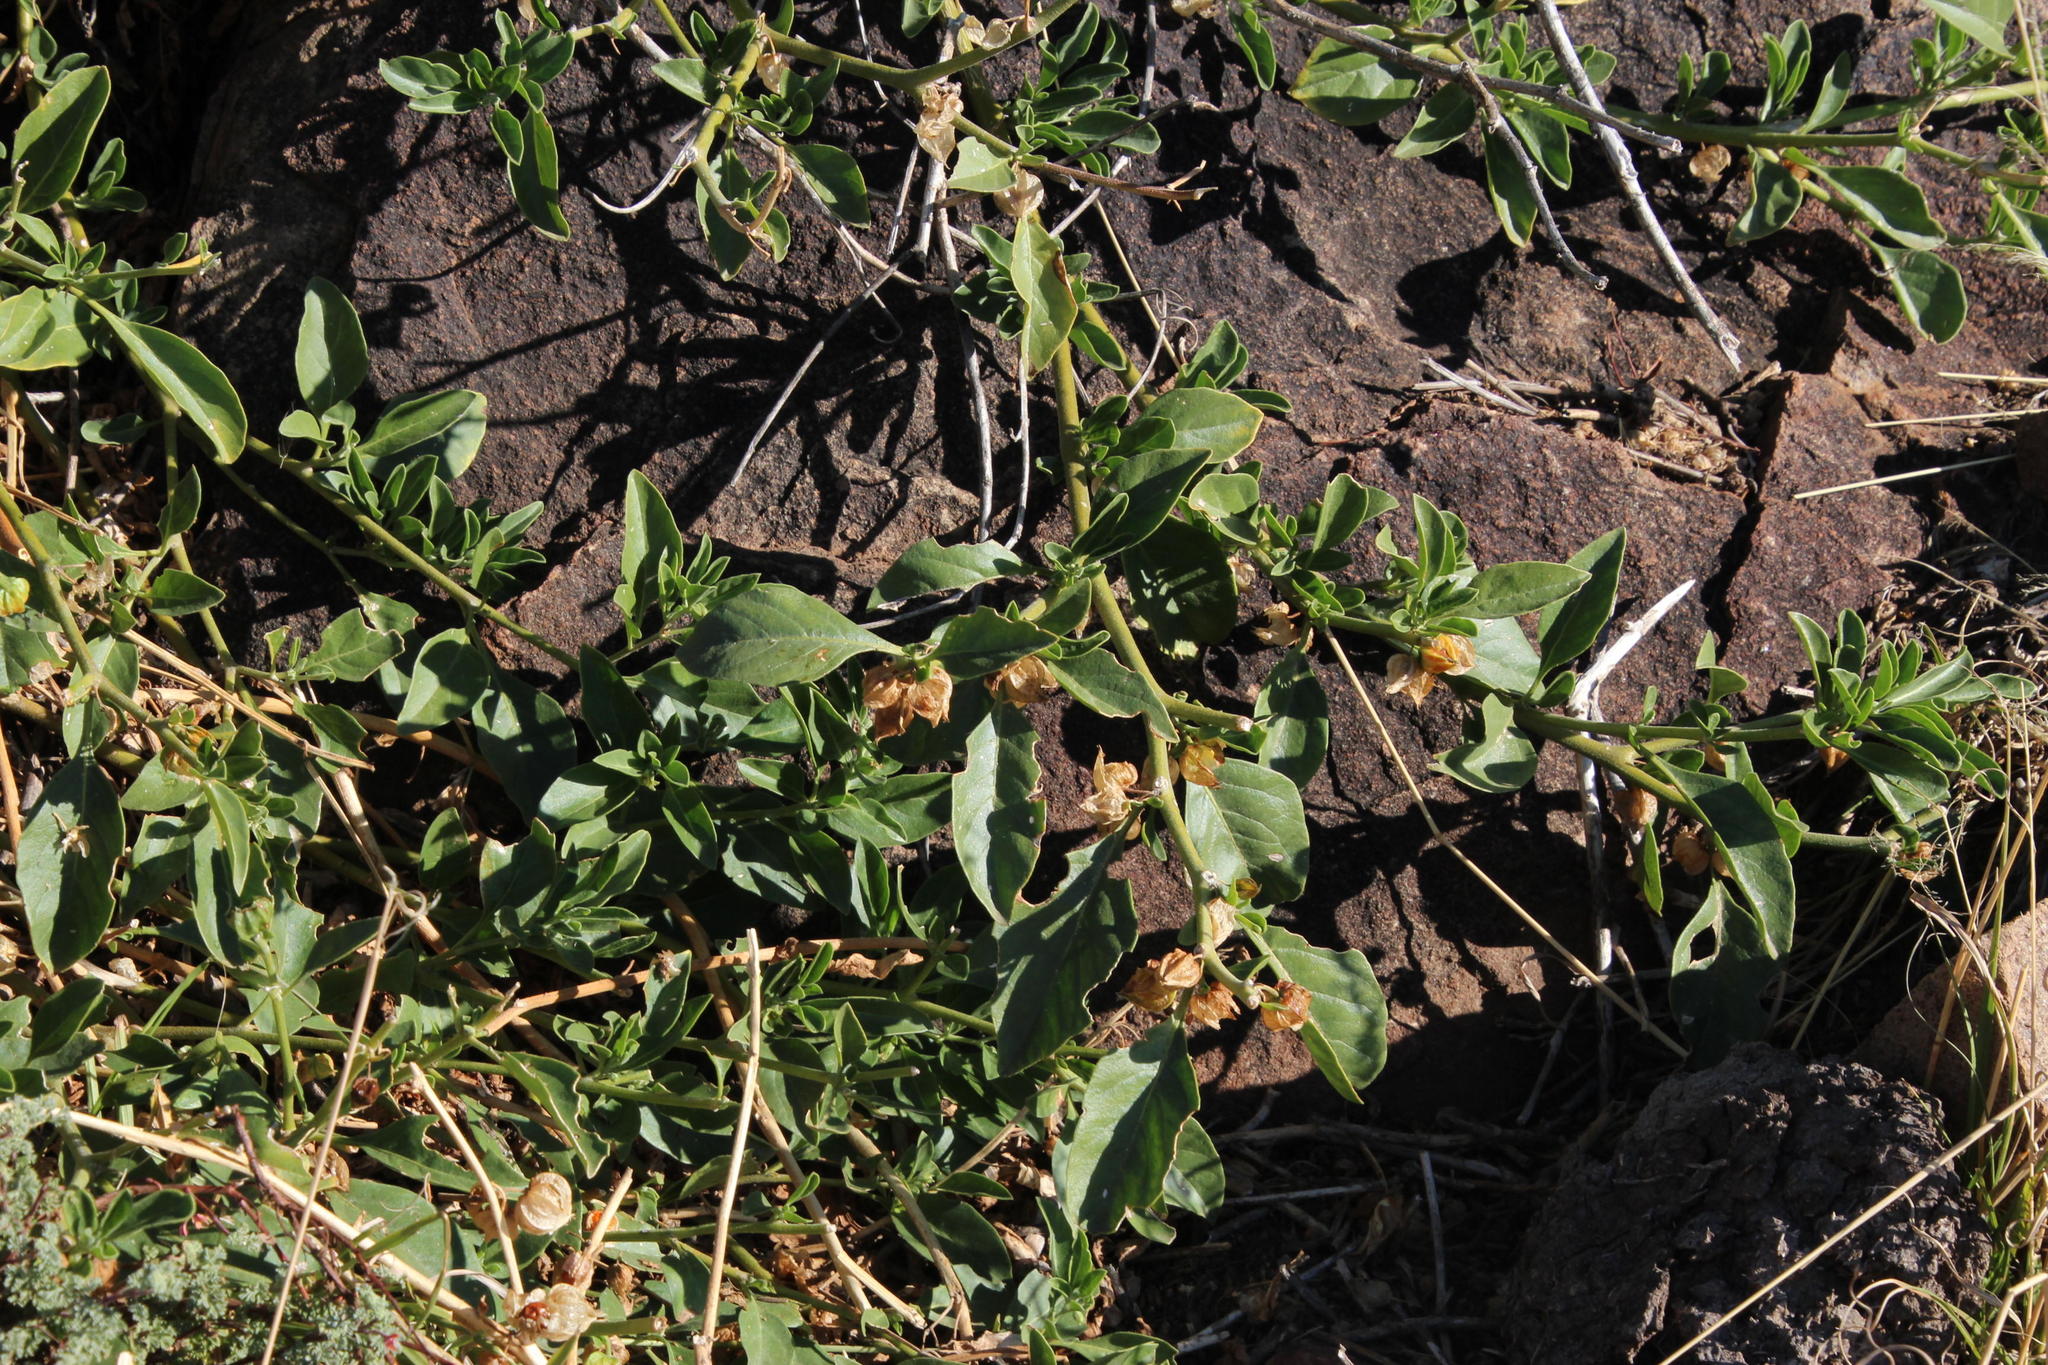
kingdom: Plantae
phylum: Tracheophyta
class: Magnoliopsida
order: Solanales
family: Solanaceae
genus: Withania
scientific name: Withania somnifera
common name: Winter-cherry
